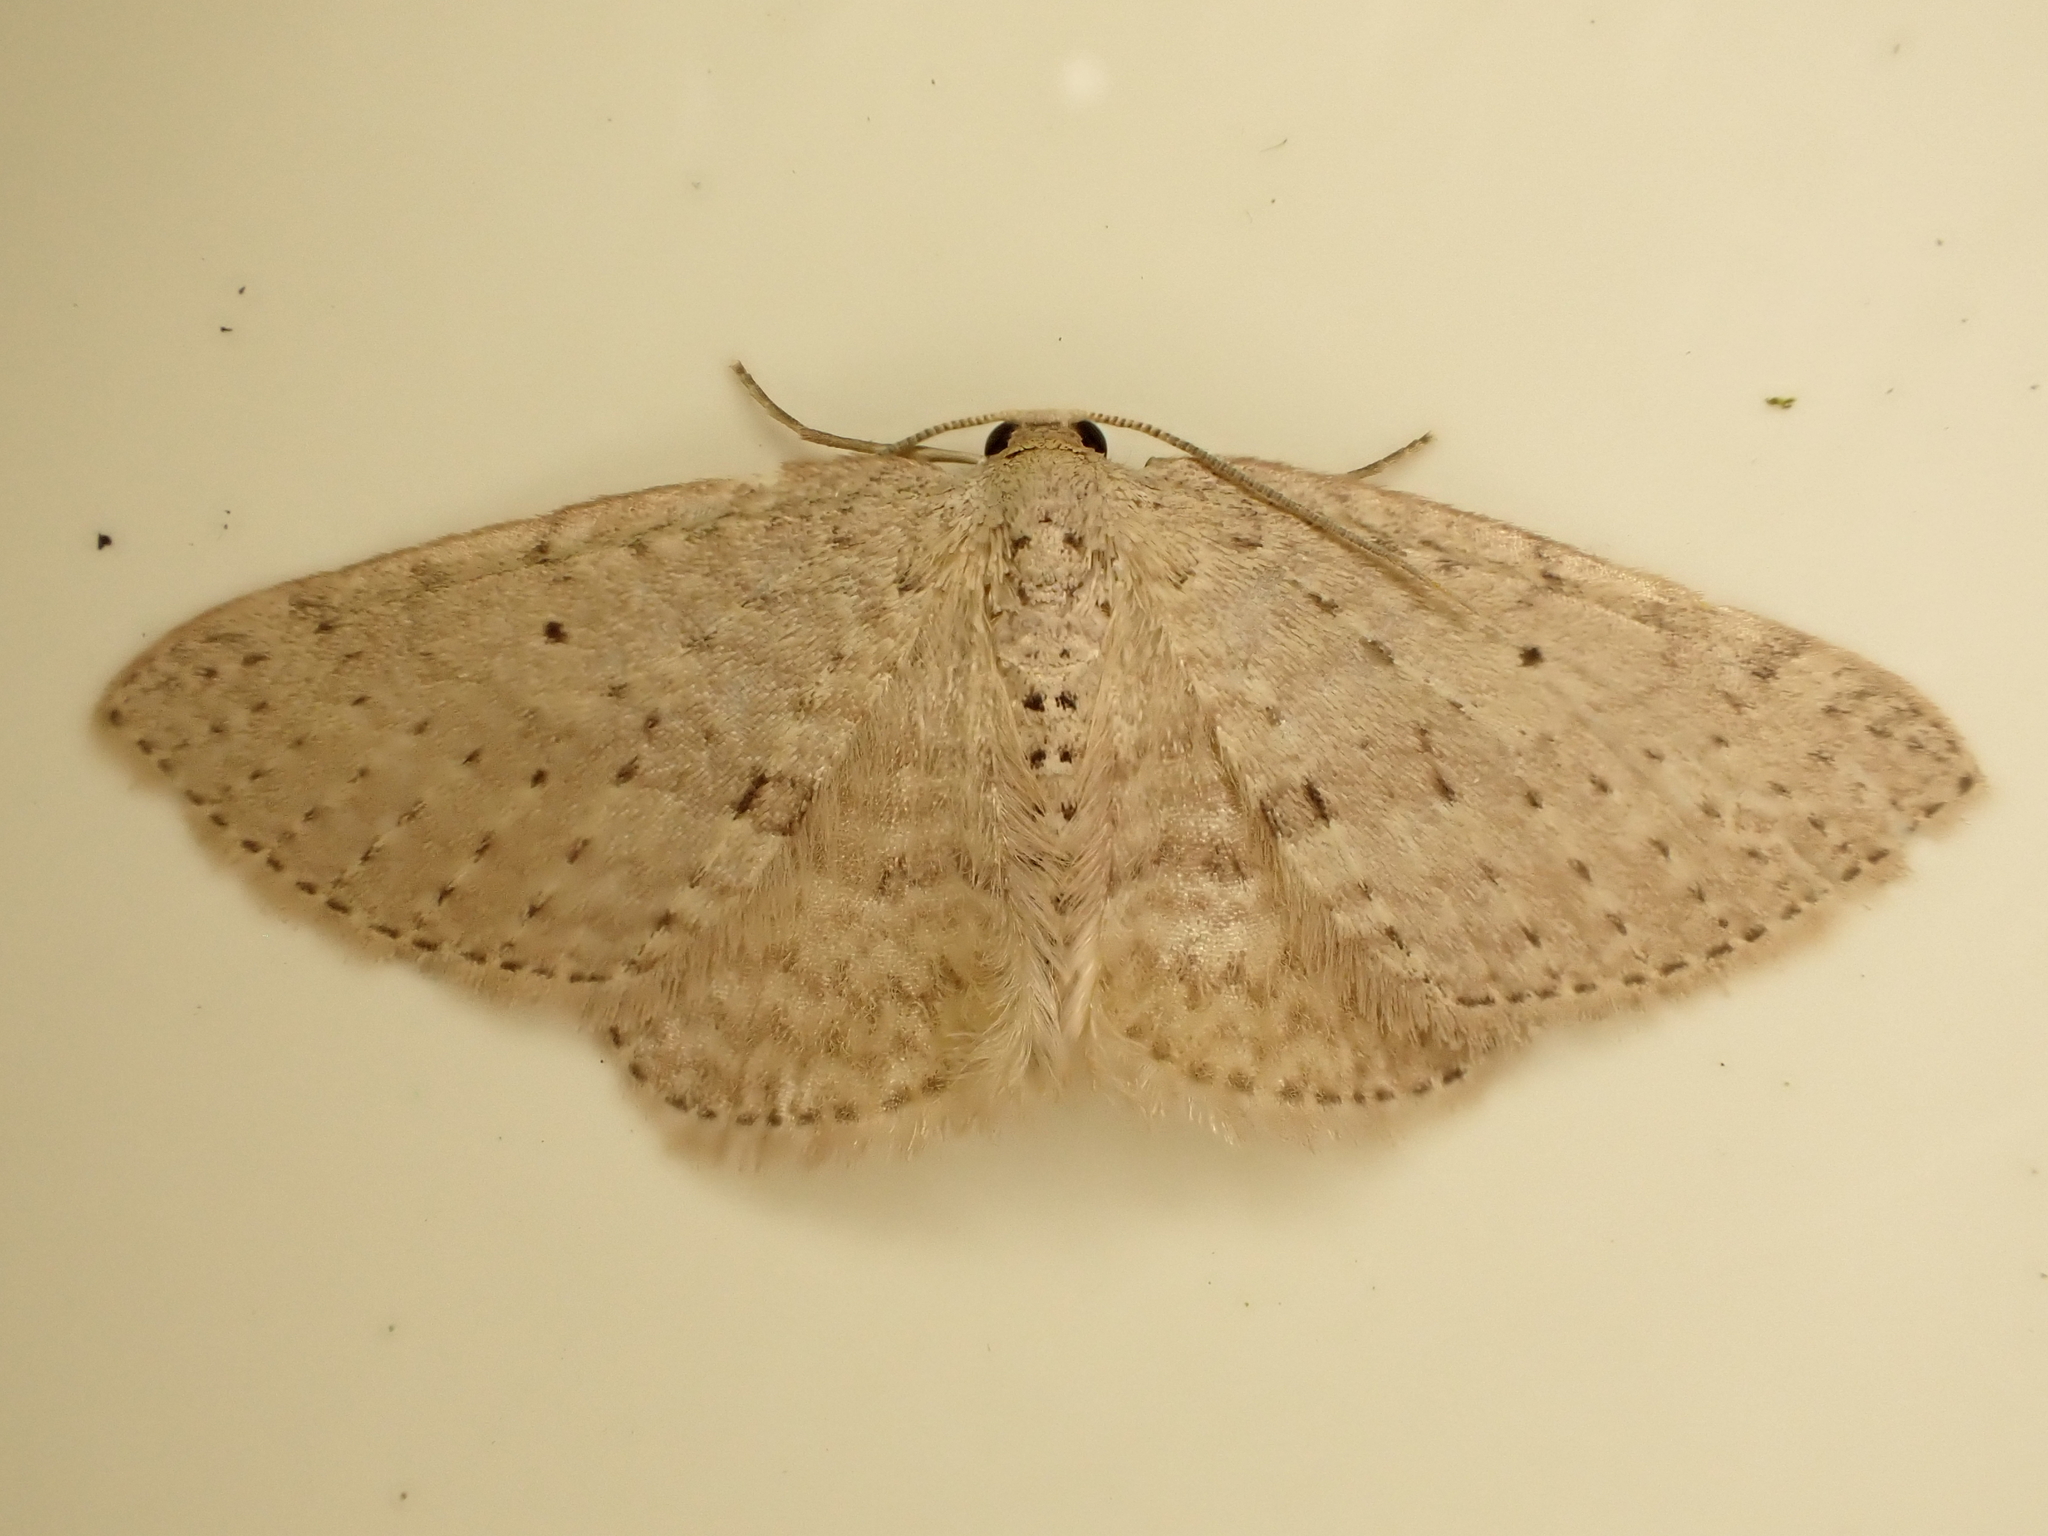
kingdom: Animalia
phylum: Arthropoda
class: Insecta
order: Lepidoptera
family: Geometridae
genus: Poecilasthena
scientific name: Poecilasthena schistaria
